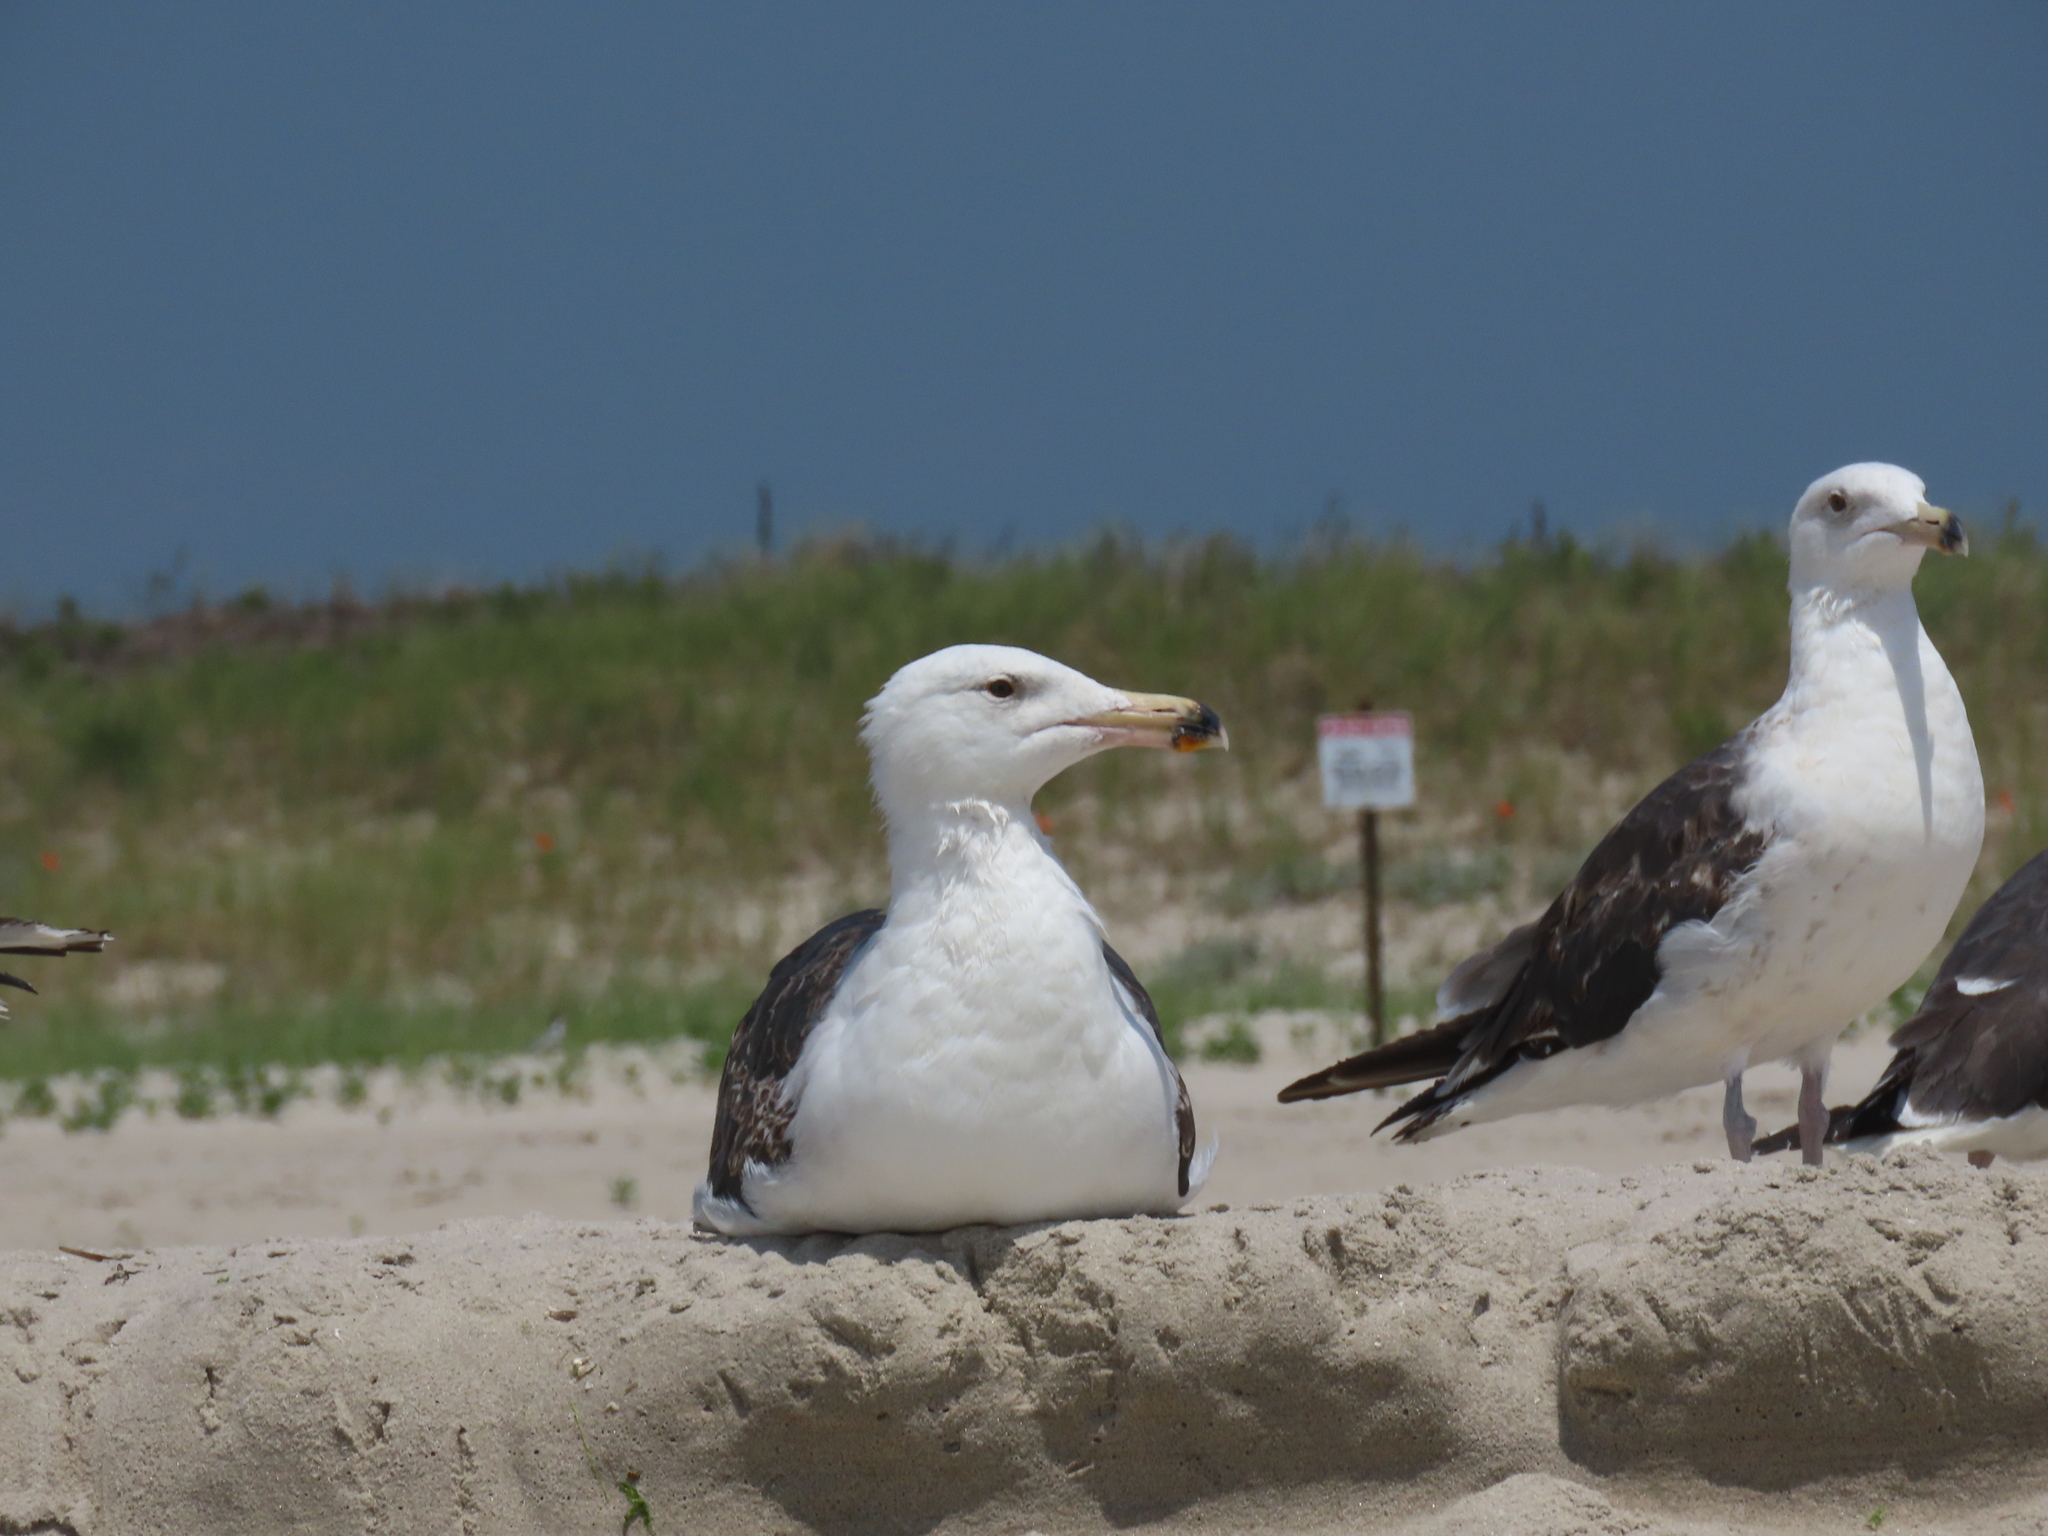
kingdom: Animalia
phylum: Chordata
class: Aves
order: Charadriiformes
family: Laridae
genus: Larus
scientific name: Larus marinus
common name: Great black-backed gull
